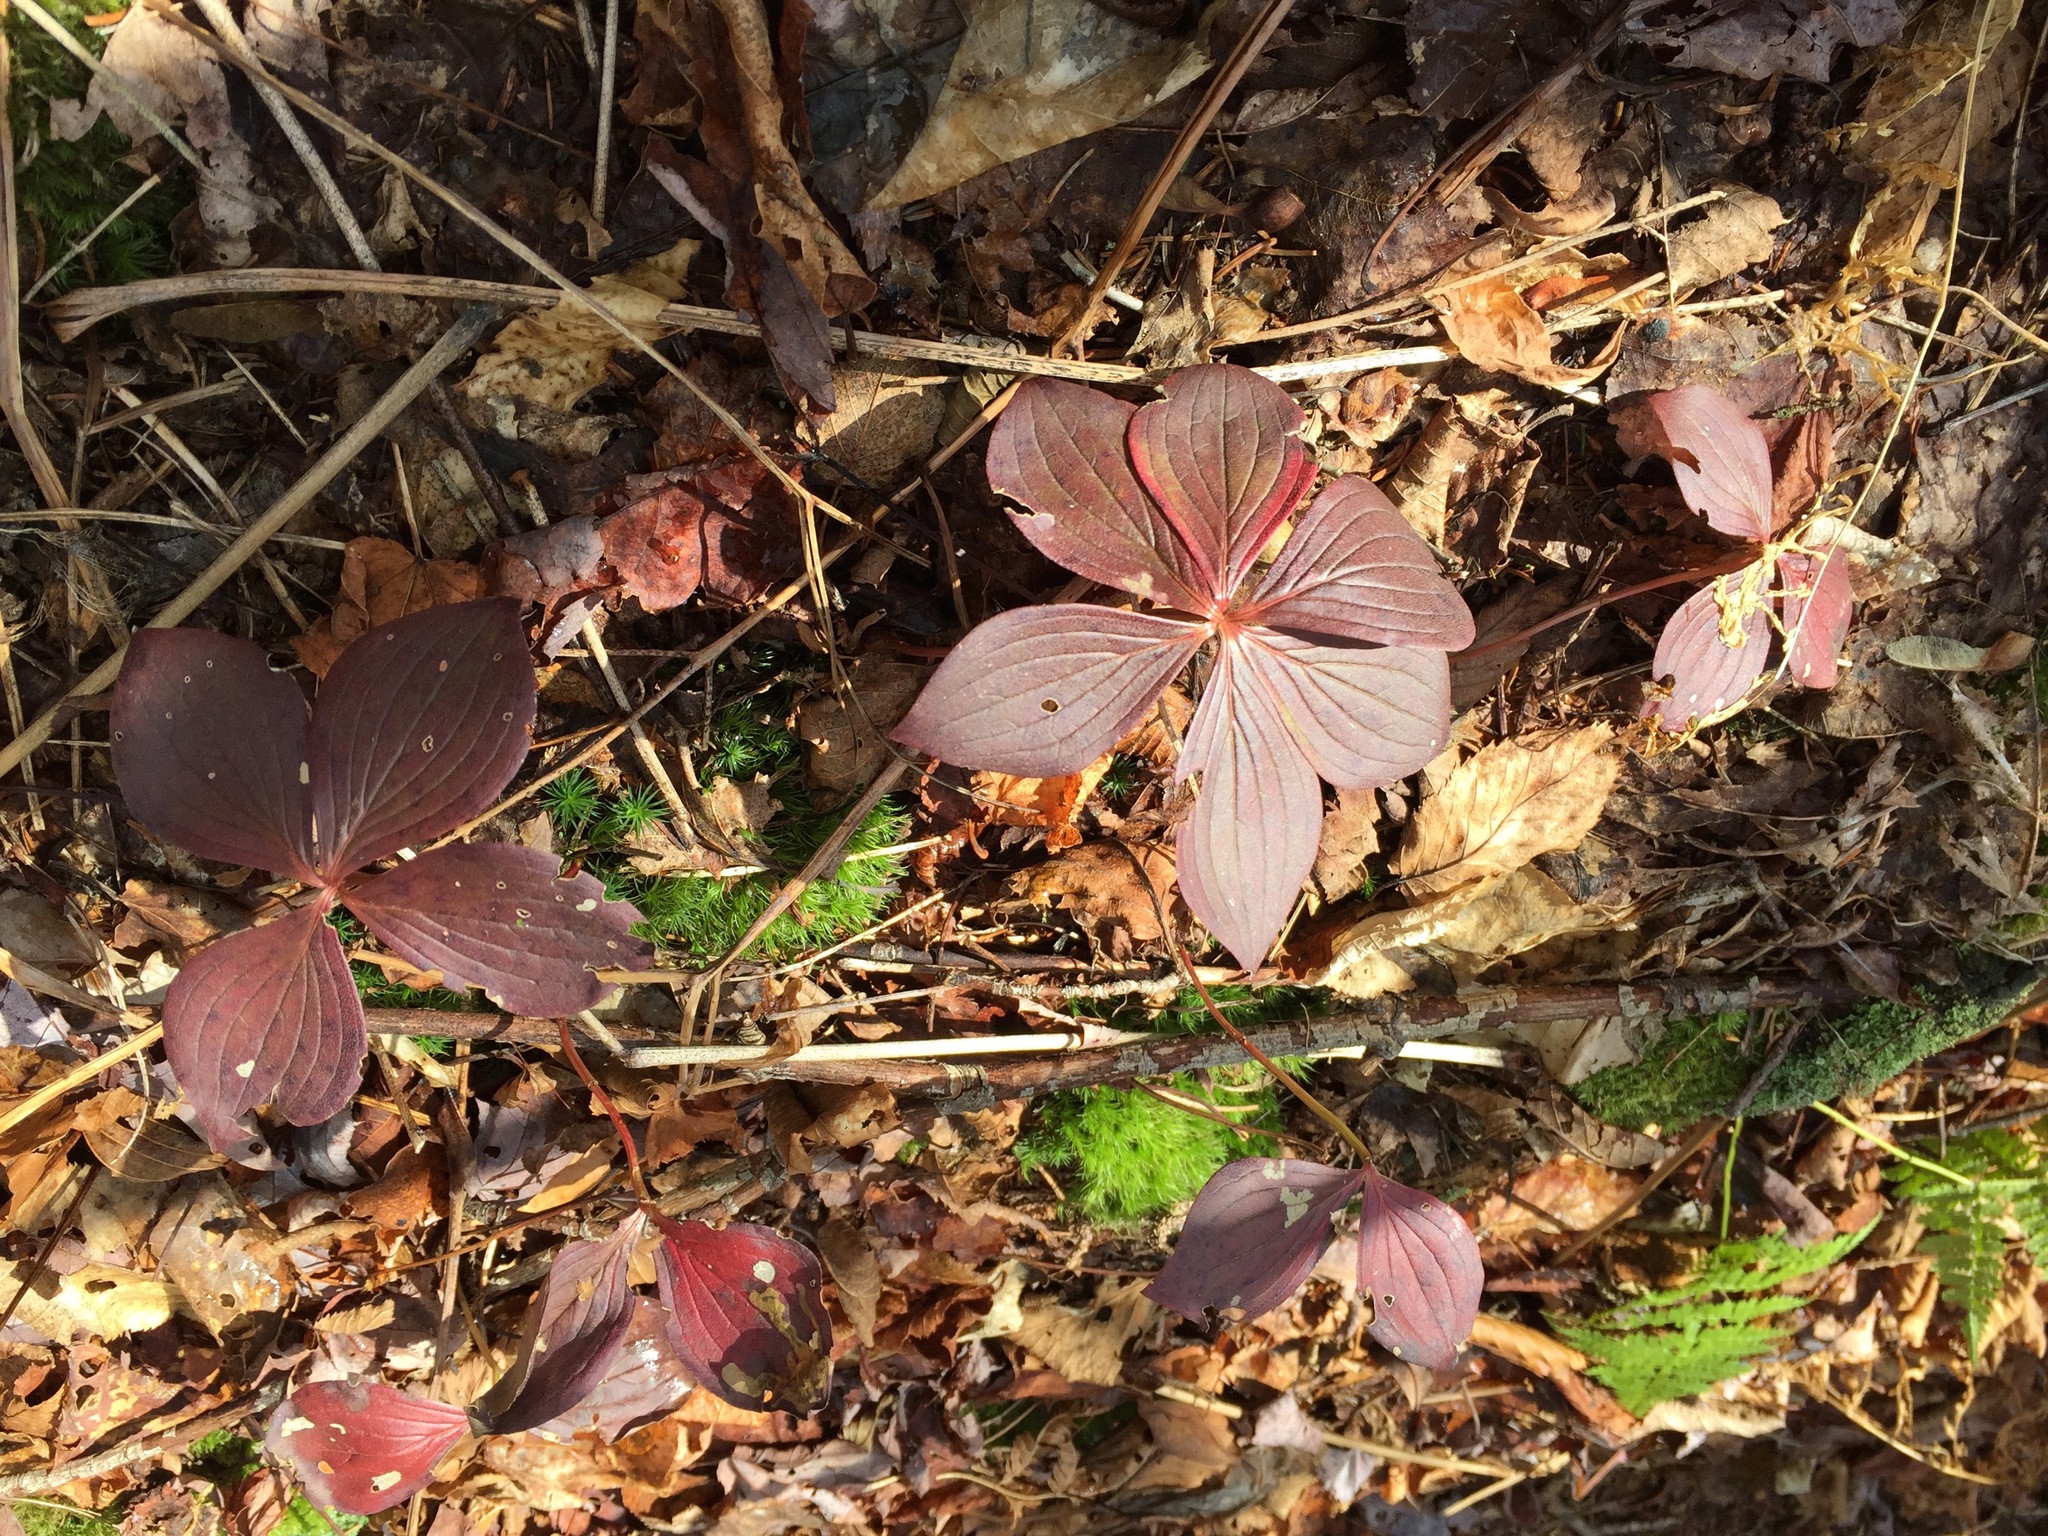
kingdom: Plantae
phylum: Tracheophyta
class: Magnoliopsida
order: Cornales
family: Cornaceae
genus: Cornus
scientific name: Cornus canadensis
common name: Creeping dogwood
